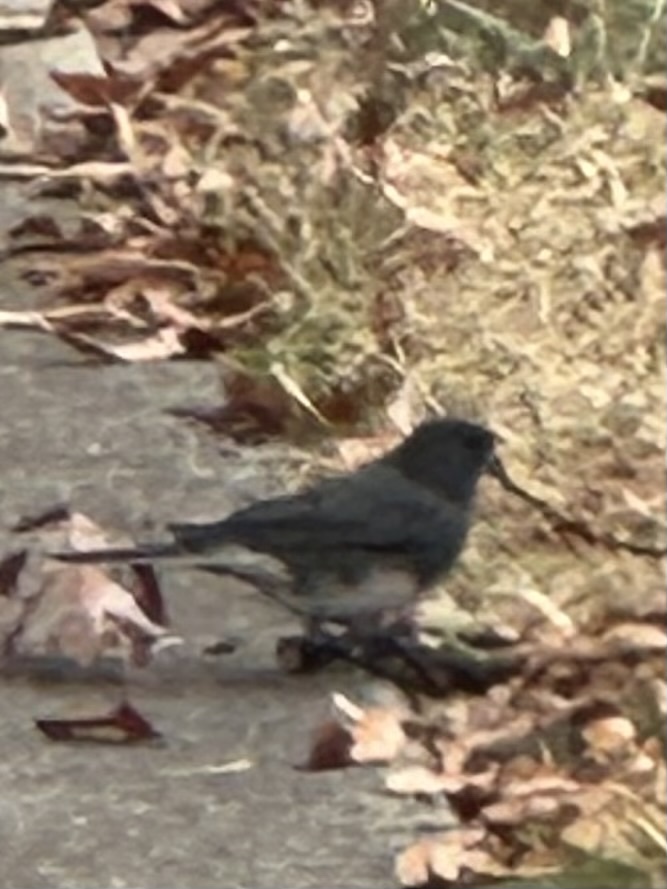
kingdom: Animalia
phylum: Chordata
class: Aves
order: Passeriformes
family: Passerellidae
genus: Junco
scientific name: Junco hyemalis
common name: Dark-eyed junco
